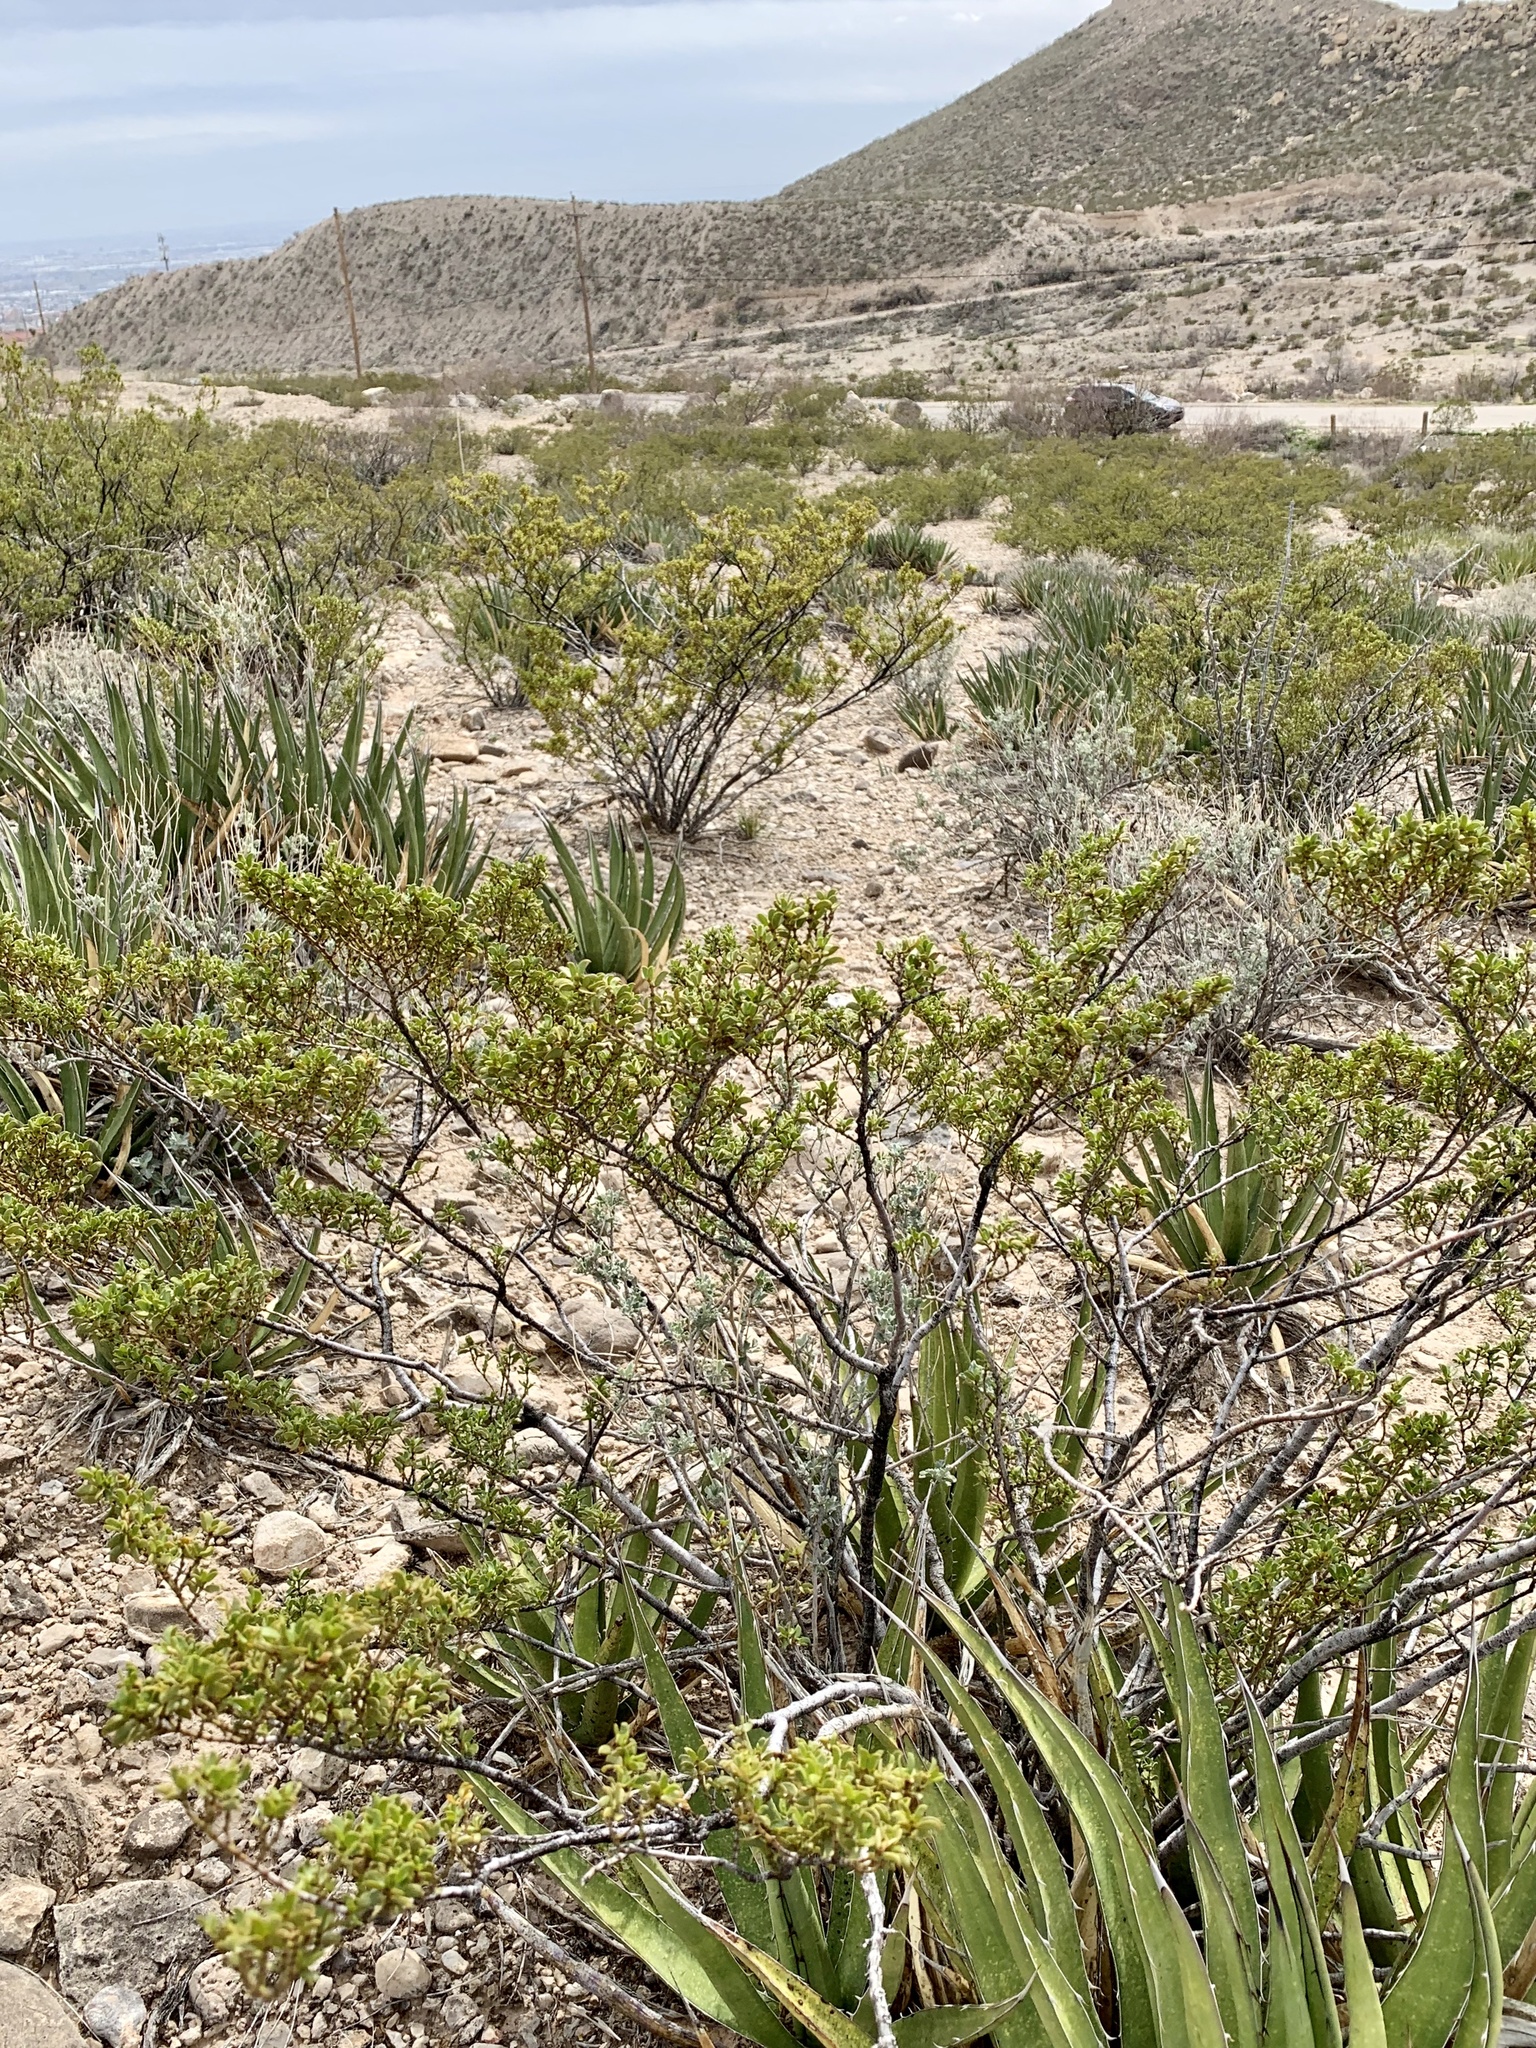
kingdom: Plantae
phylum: Tracheophyta
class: Magnoliopsida
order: Zygophyllales
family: Zygophyllaceae
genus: Larrea
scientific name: Larrea tridentata
